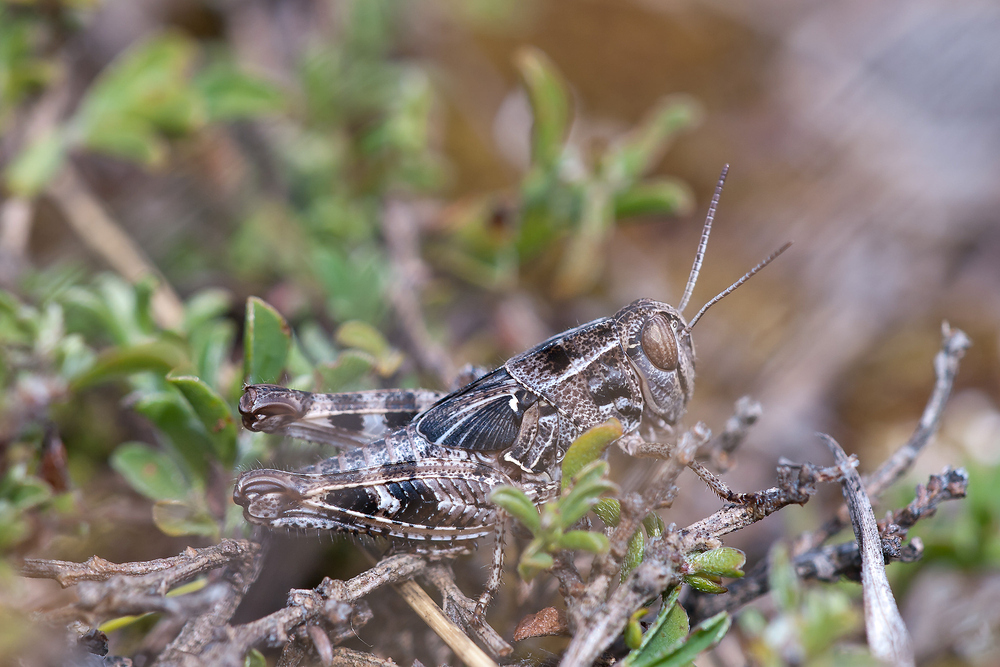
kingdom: Animalia
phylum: Arthropoda
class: Insecta
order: Orthoptera
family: Acrididae
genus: Calliptamus
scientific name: Calliptamus italicus
